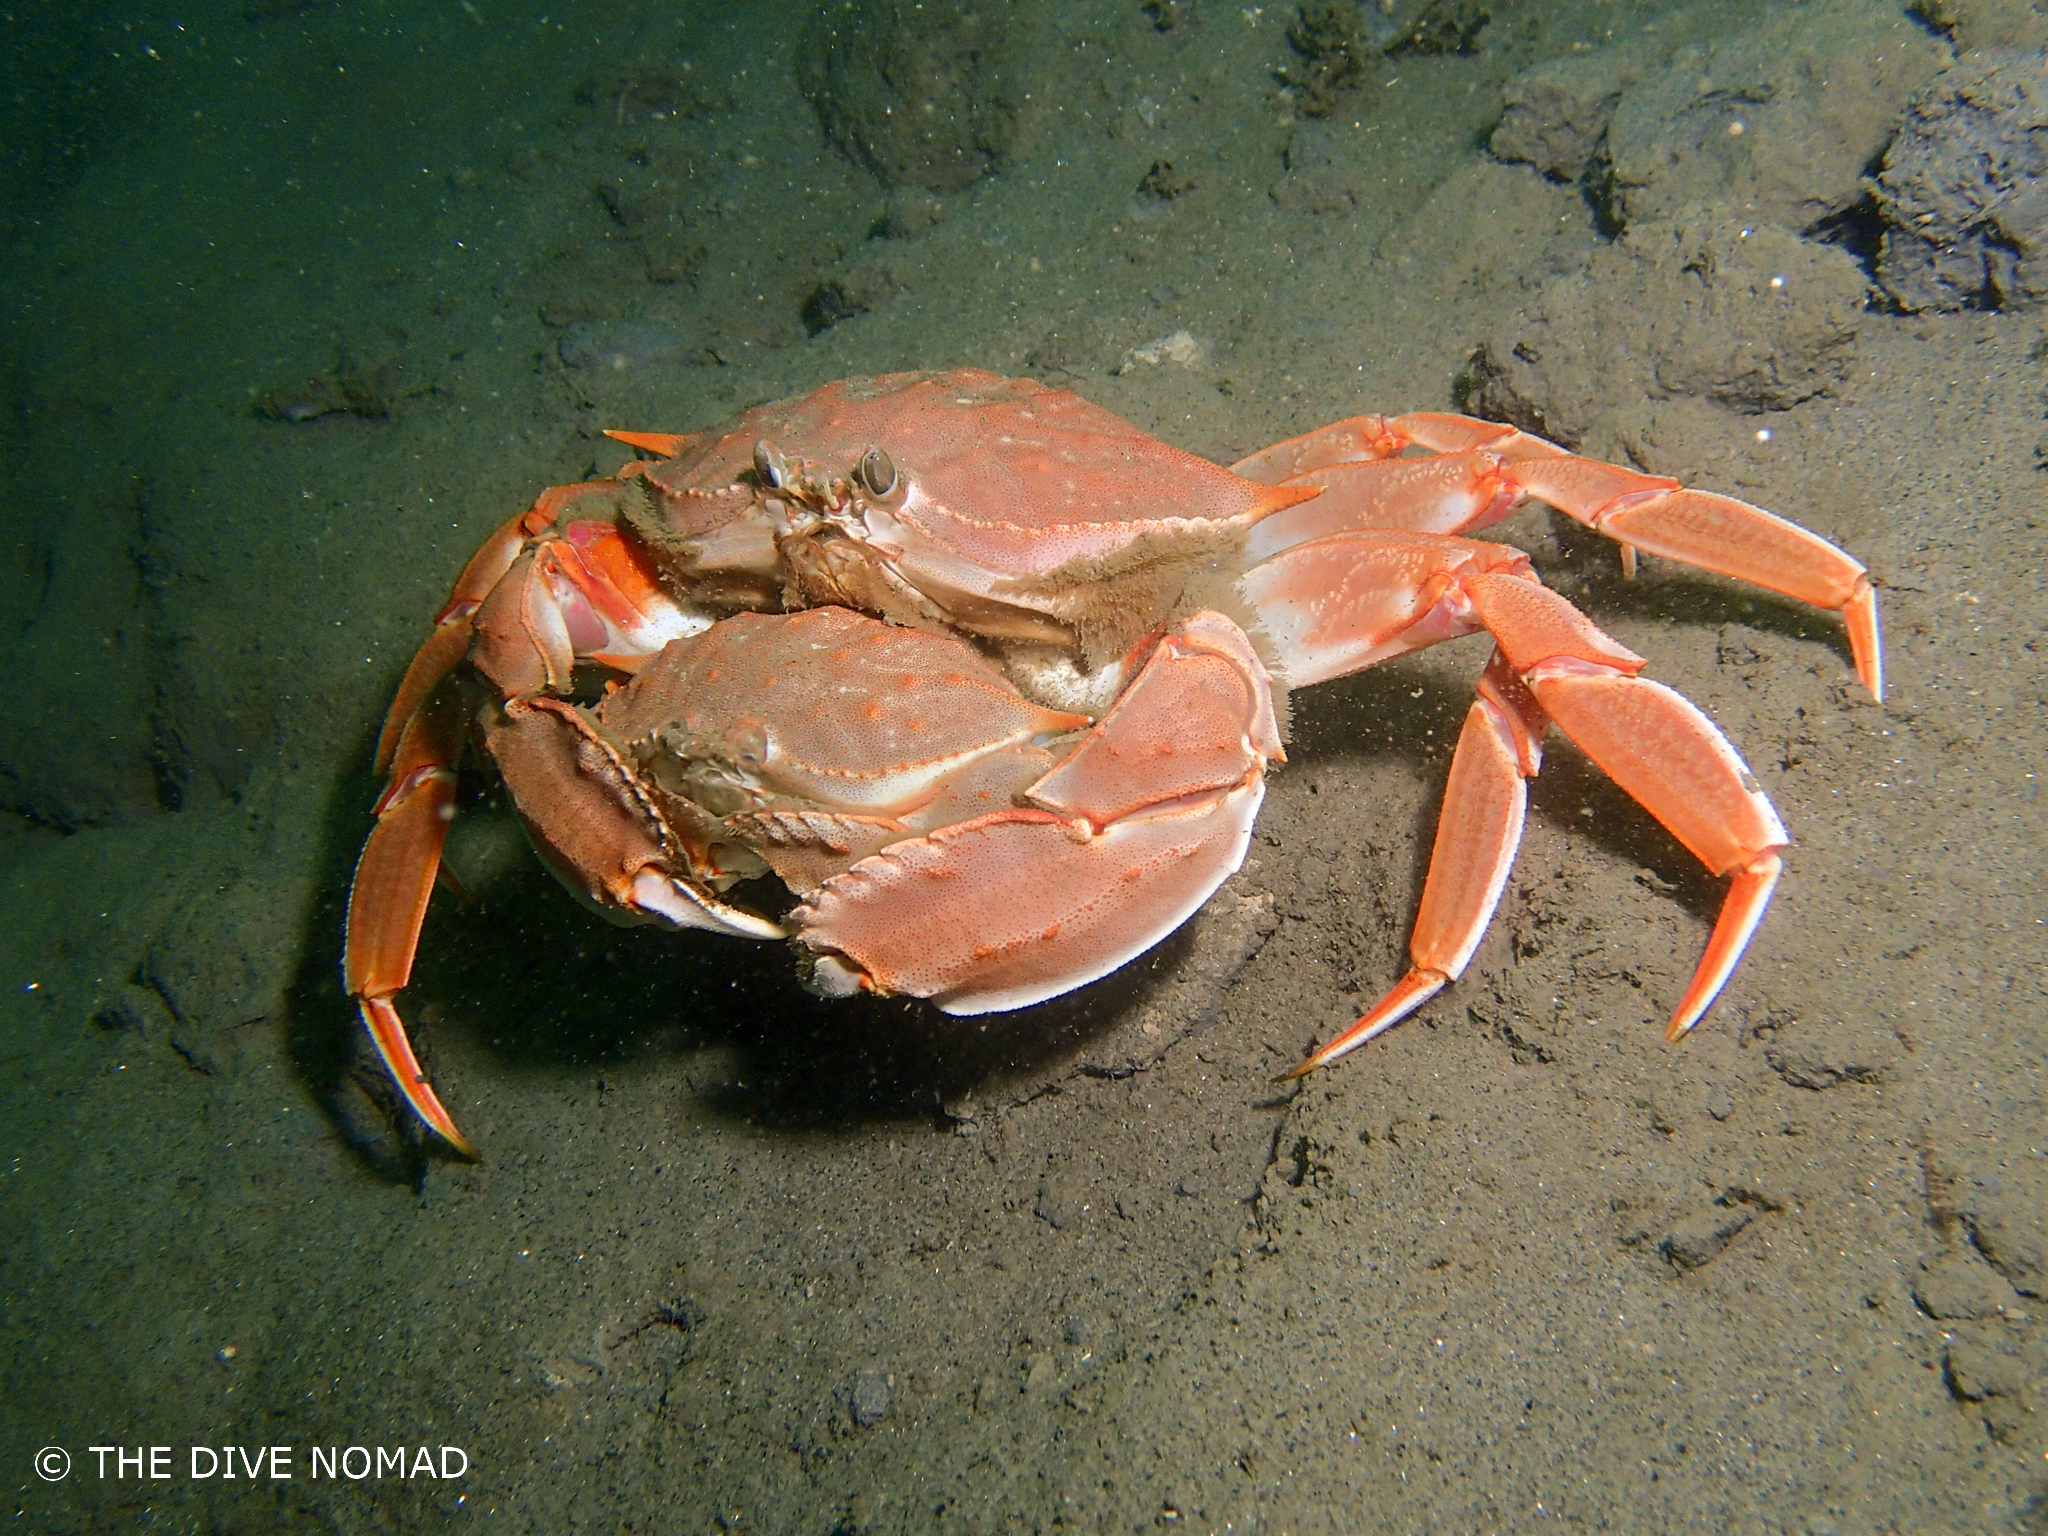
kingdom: Animalia
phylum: Arthropoda
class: Malacostraca
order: Decapoda
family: Calappidae
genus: Platymera
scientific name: Platymera gaudichaudii
